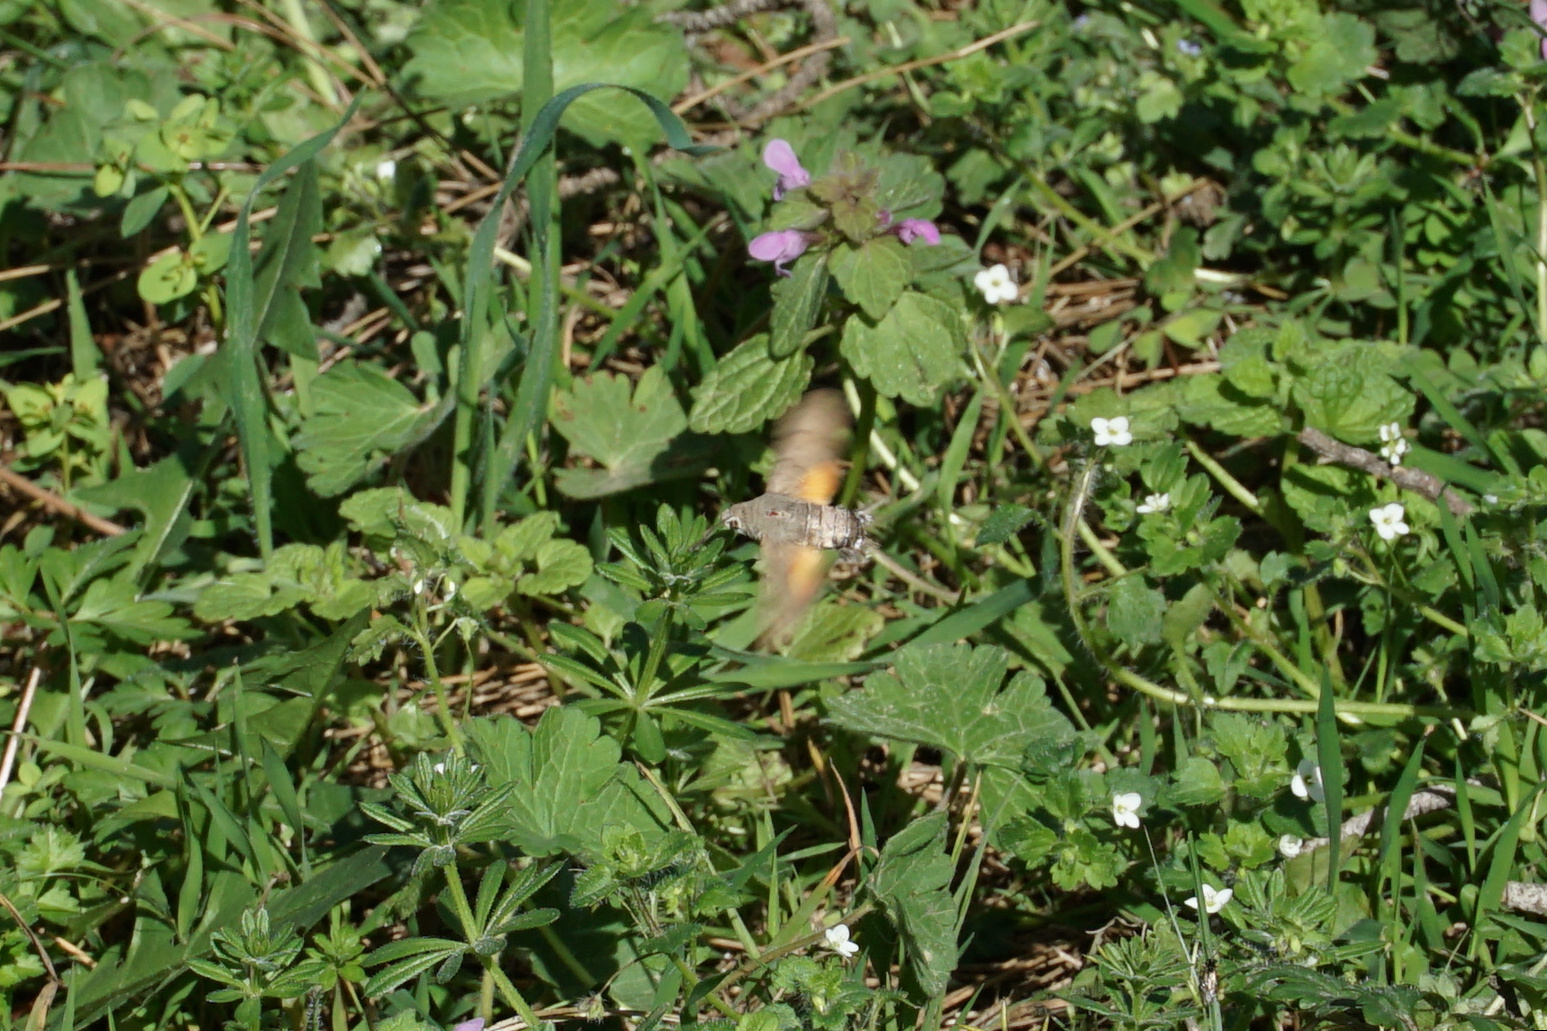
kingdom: Animalia
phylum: Arthropoda
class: Insecta
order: Lepidoptera
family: Sphingidae
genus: Macroglossum
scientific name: Macroglossum stellatarum
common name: Humming-bird hawk-moth
